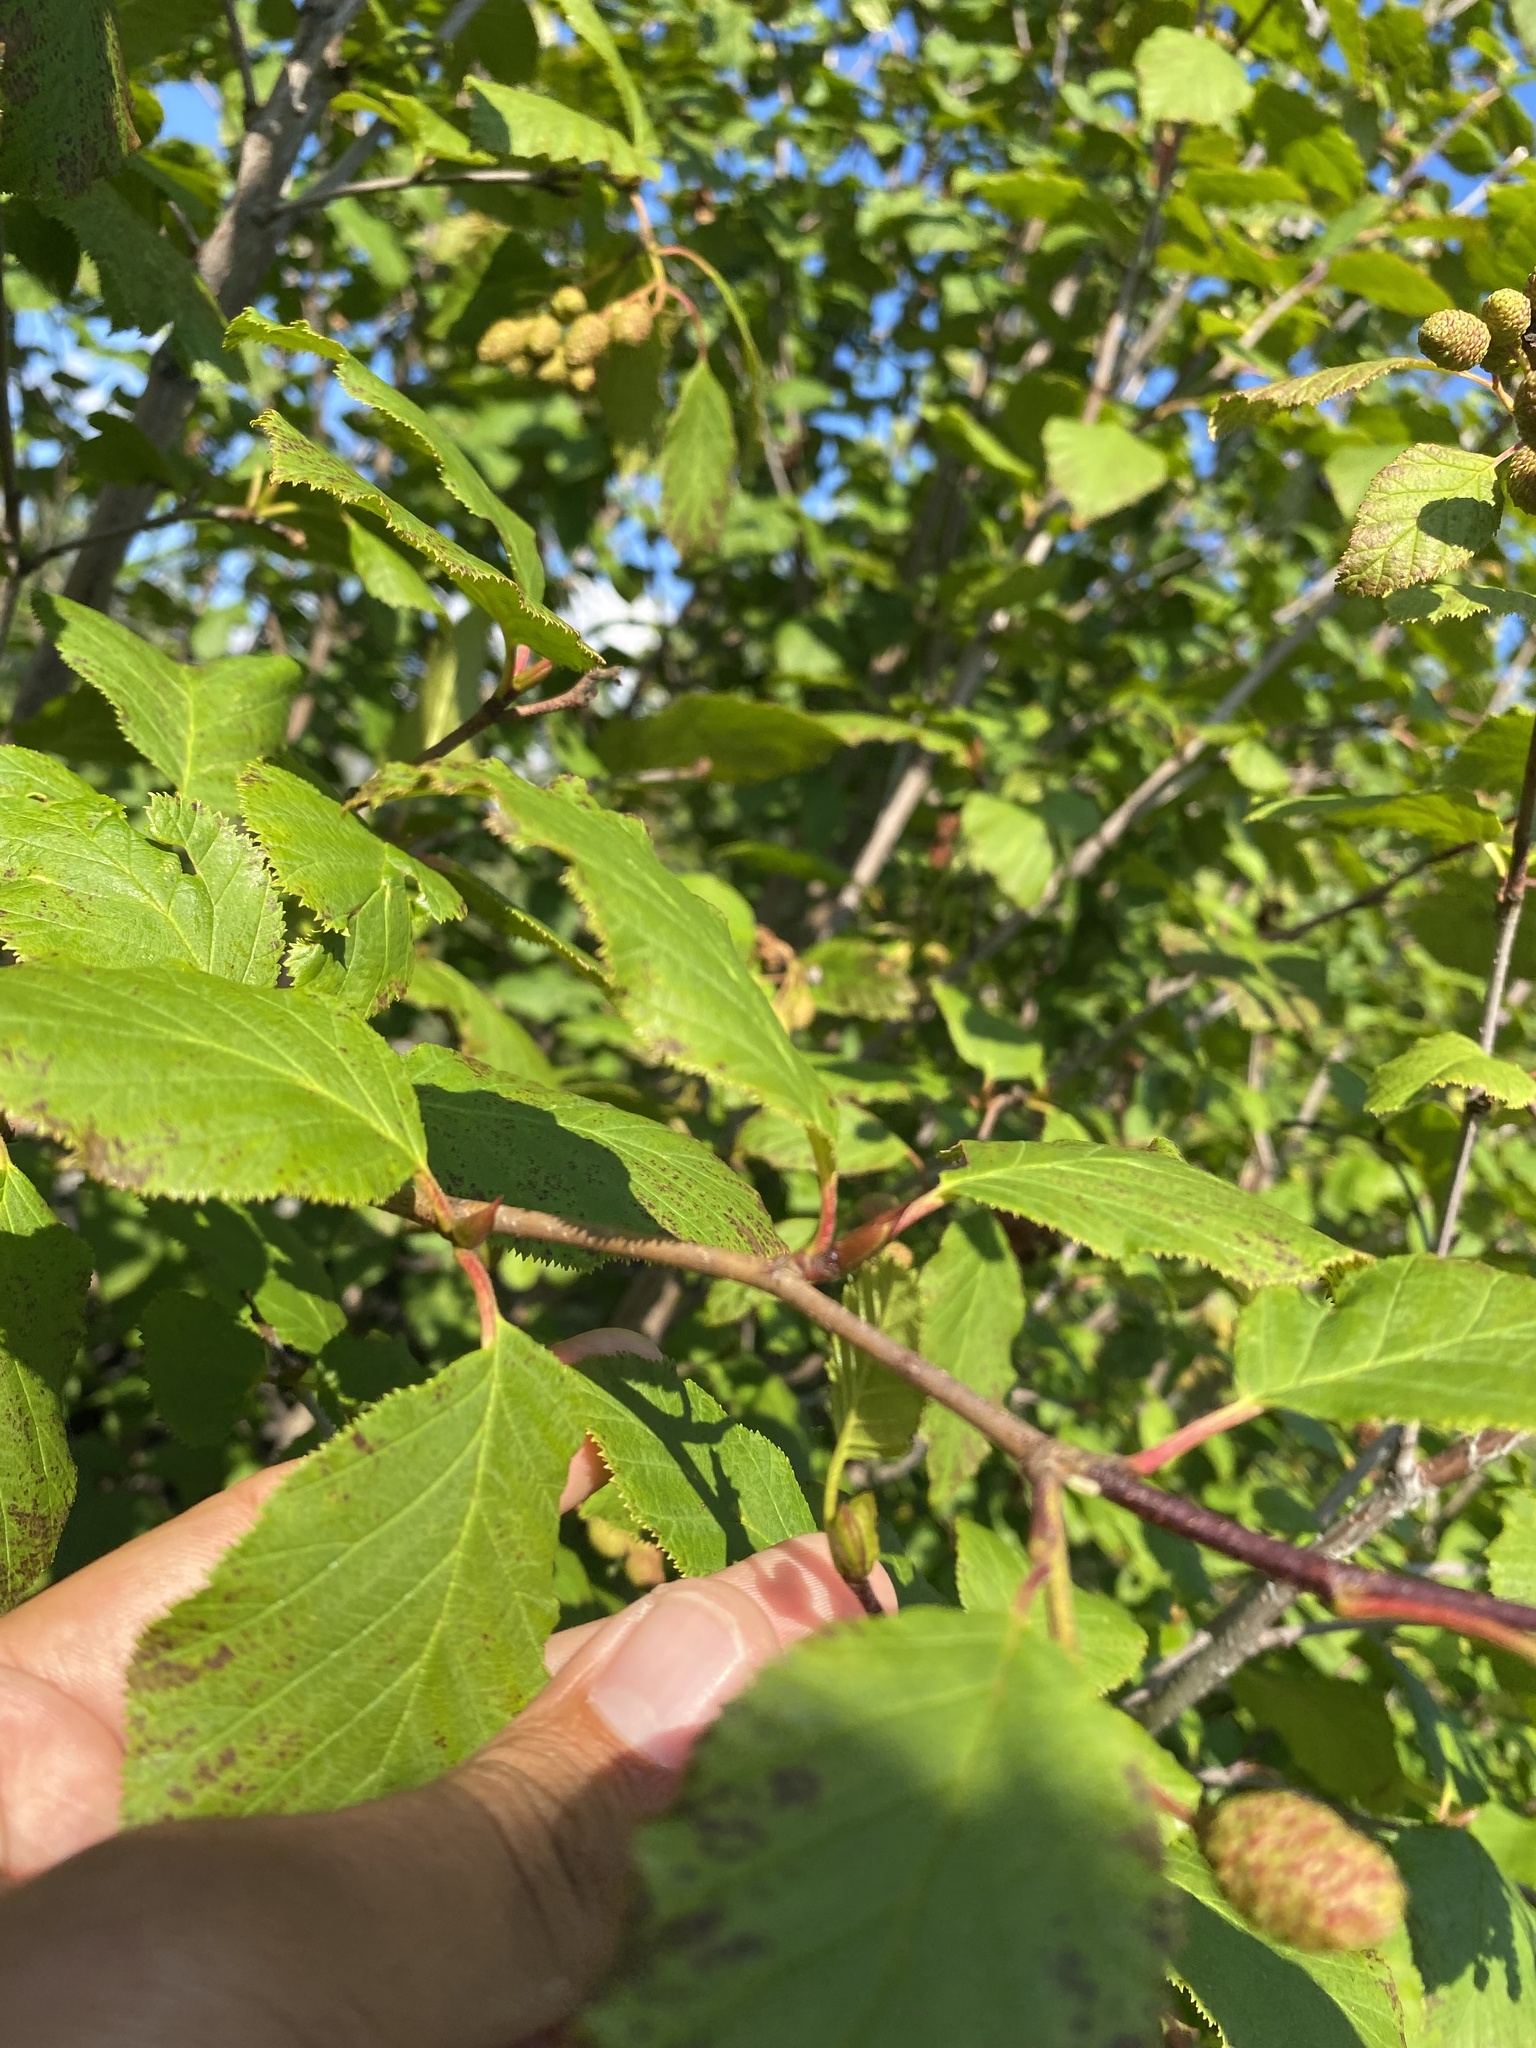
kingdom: Plantae
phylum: Tracheophyta
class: Magnoliopsida
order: Fagales
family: Betulaceae
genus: Alnus
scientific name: Alnus alnobetula
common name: Green alder
